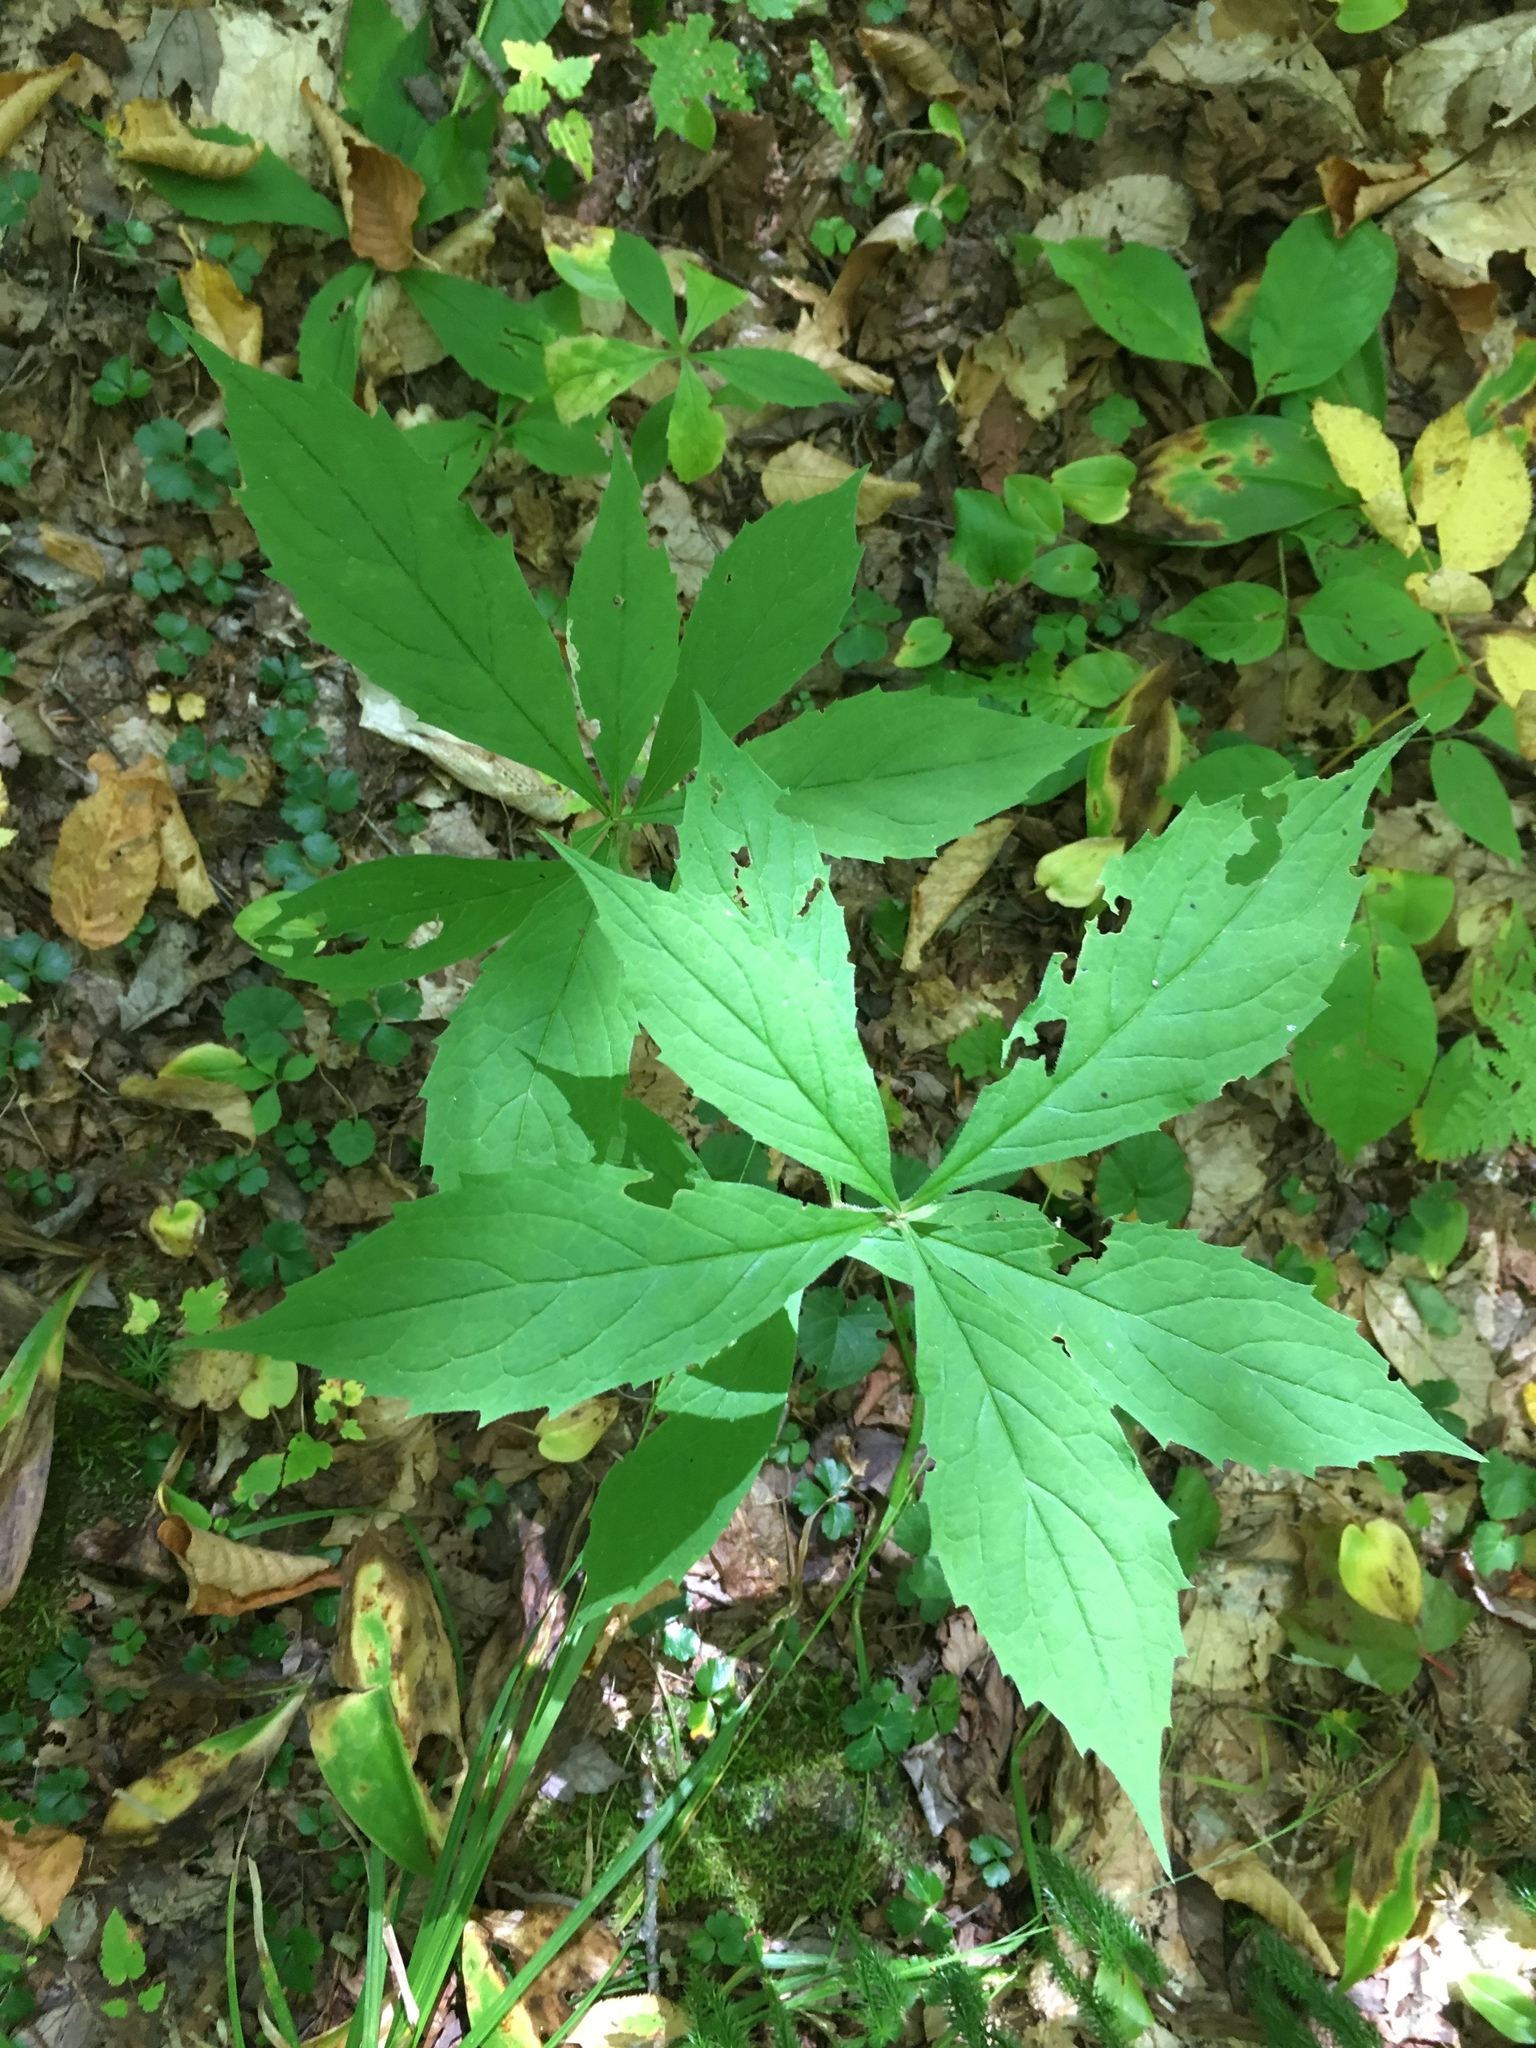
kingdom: Plantae
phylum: Tracheophyta
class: Magnoliopsida
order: Asterales
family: Asteraceae
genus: Oclemena
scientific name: Oclemena acuminata
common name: Mountain aster
